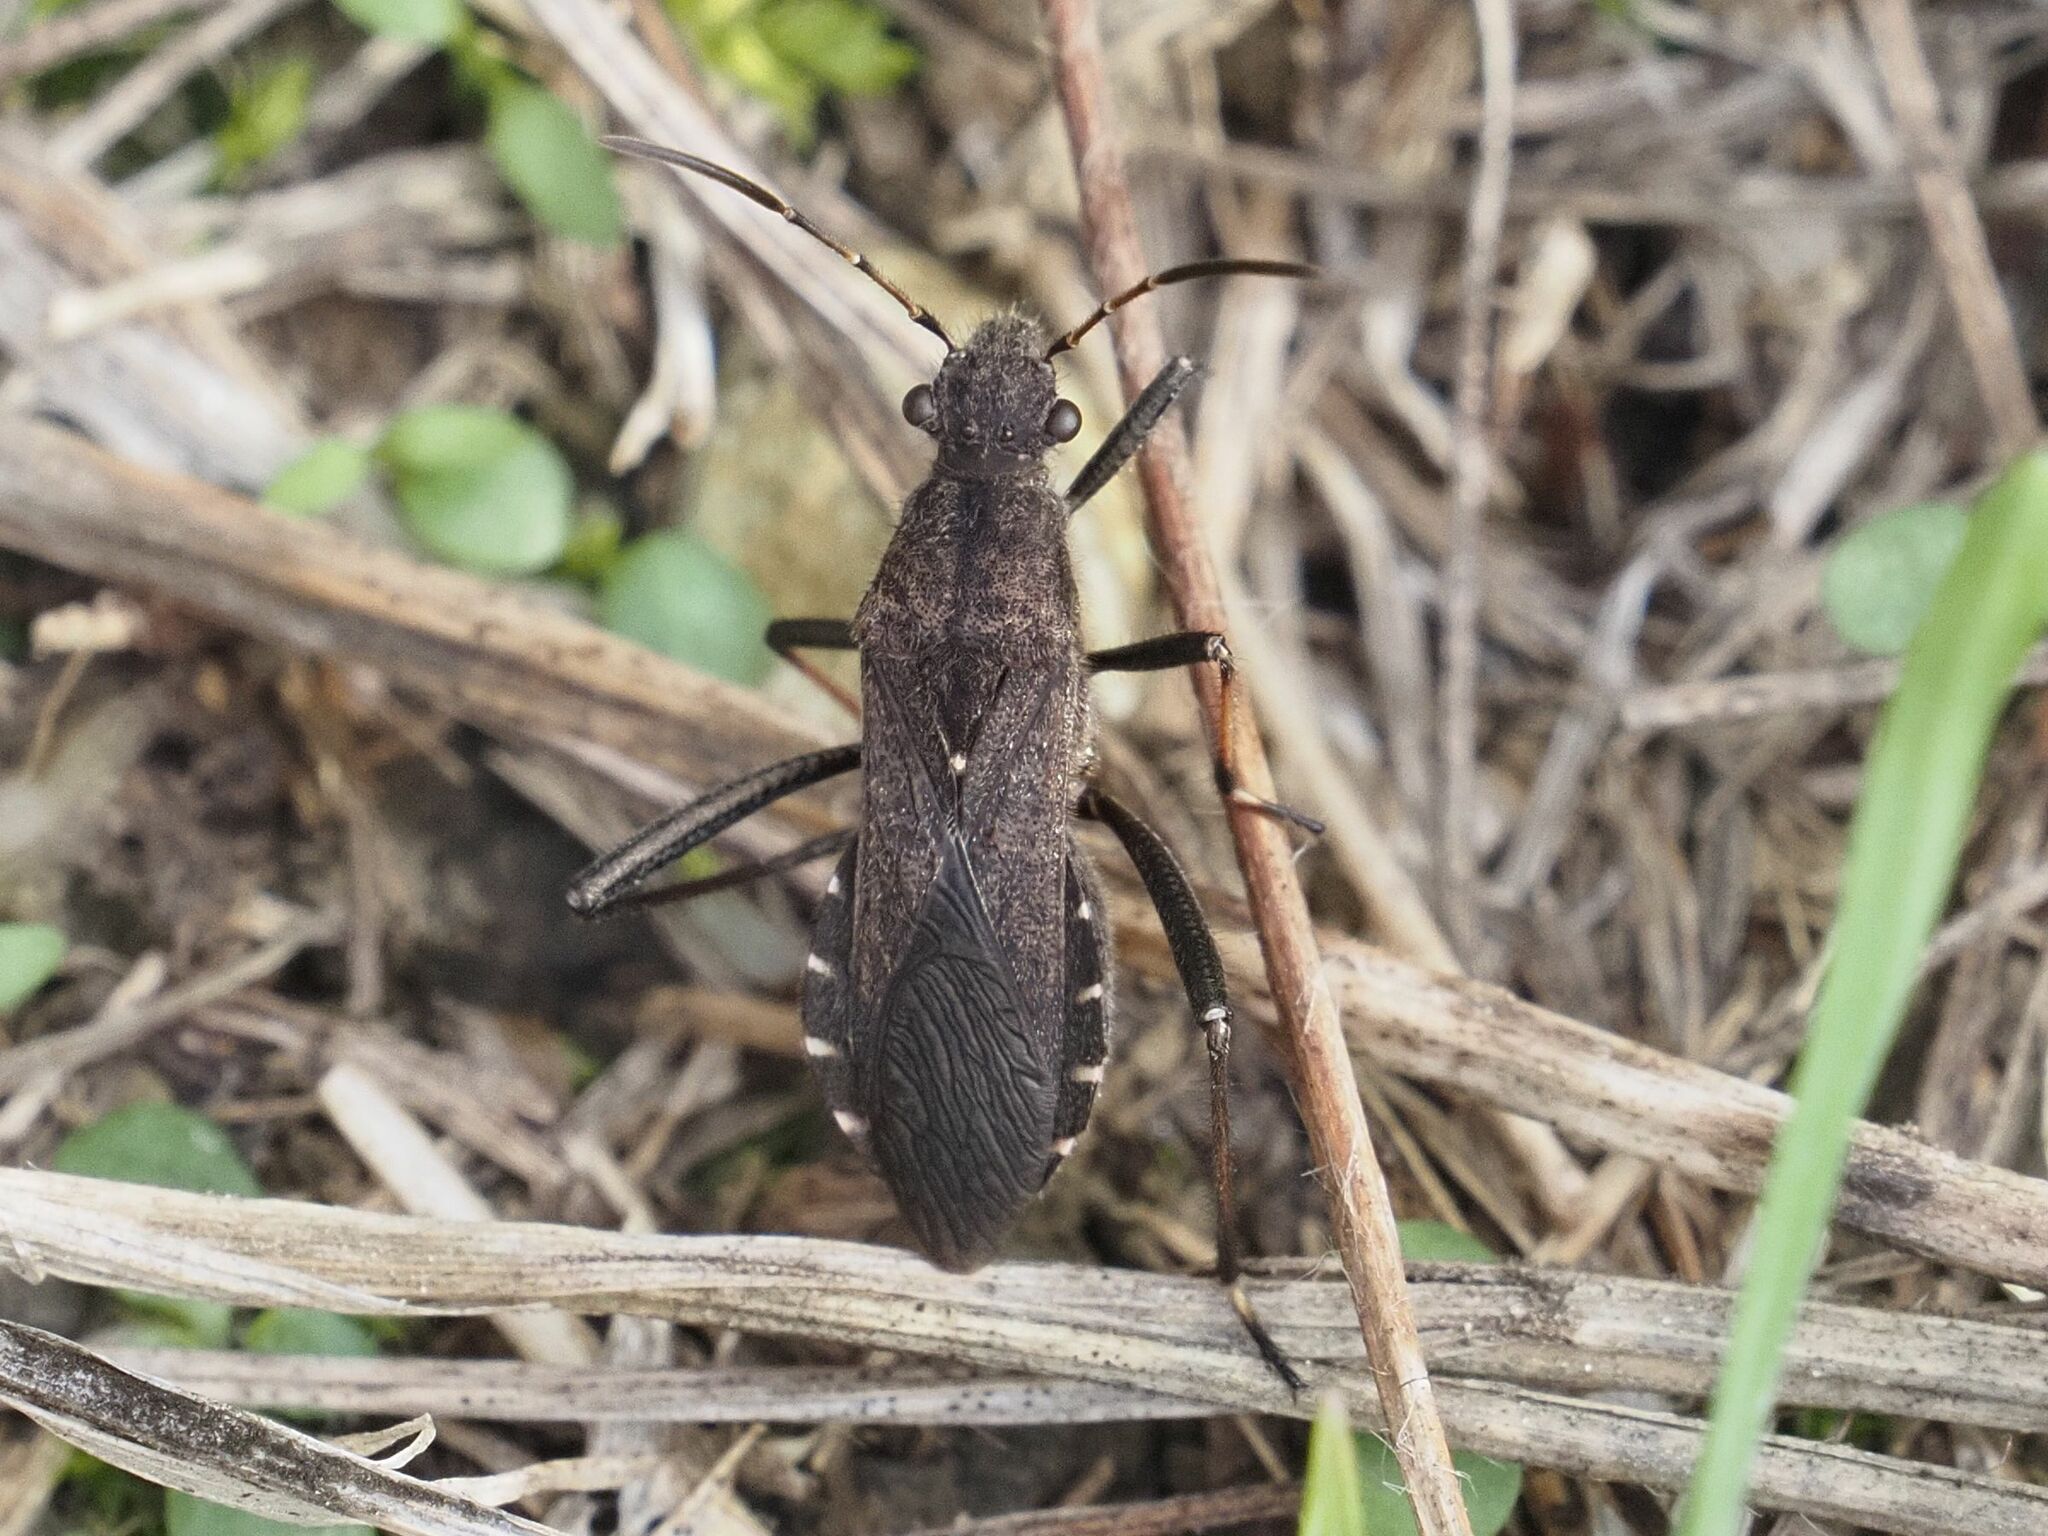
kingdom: Animalia
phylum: Arthropoda
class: Insecta
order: Hemiptera
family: Alydidae
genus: Alydus
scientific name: Alydus calcaratus
